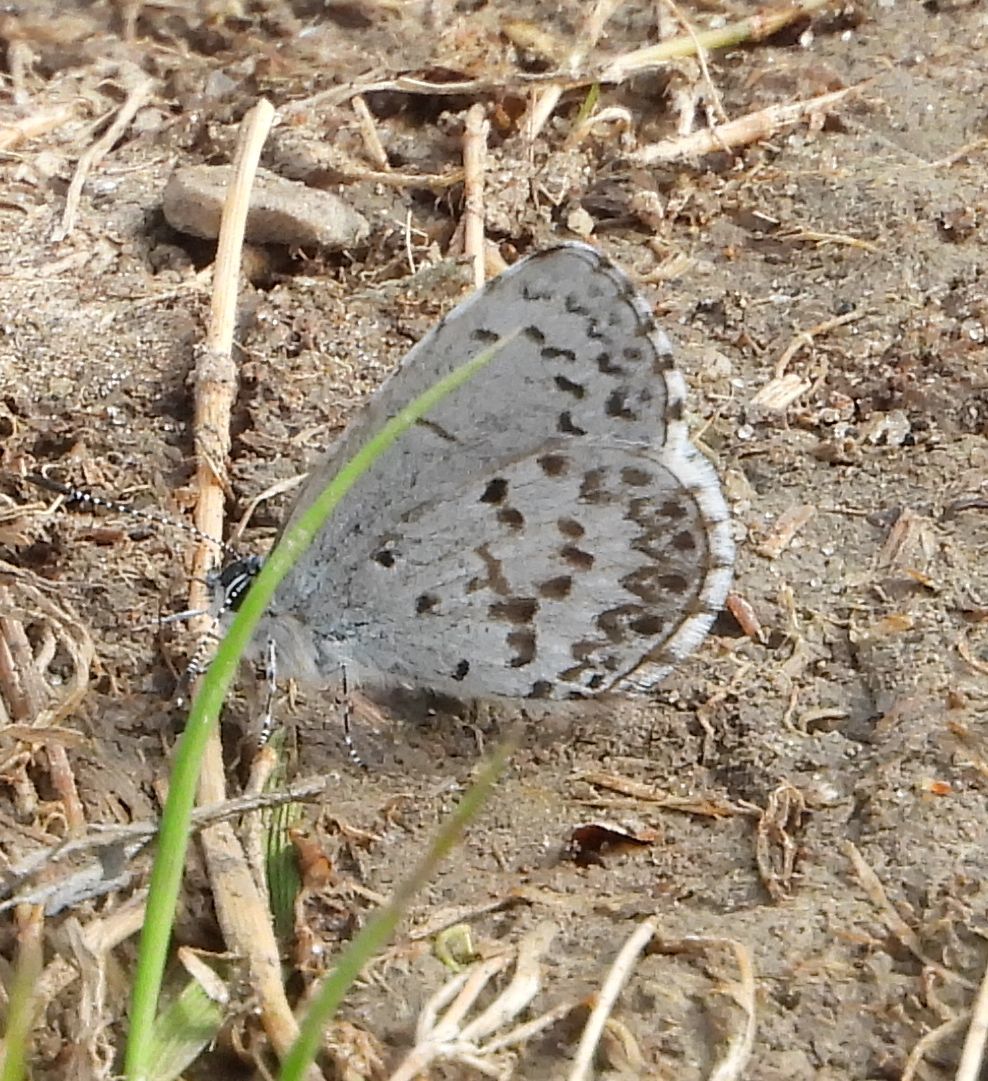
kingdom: Animalia
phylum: Arthropoda
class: Insecta
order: Lepidoptera
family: Lycaenidae
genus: Celastrina
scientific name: Celastrina lucia
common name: Lucia azure
